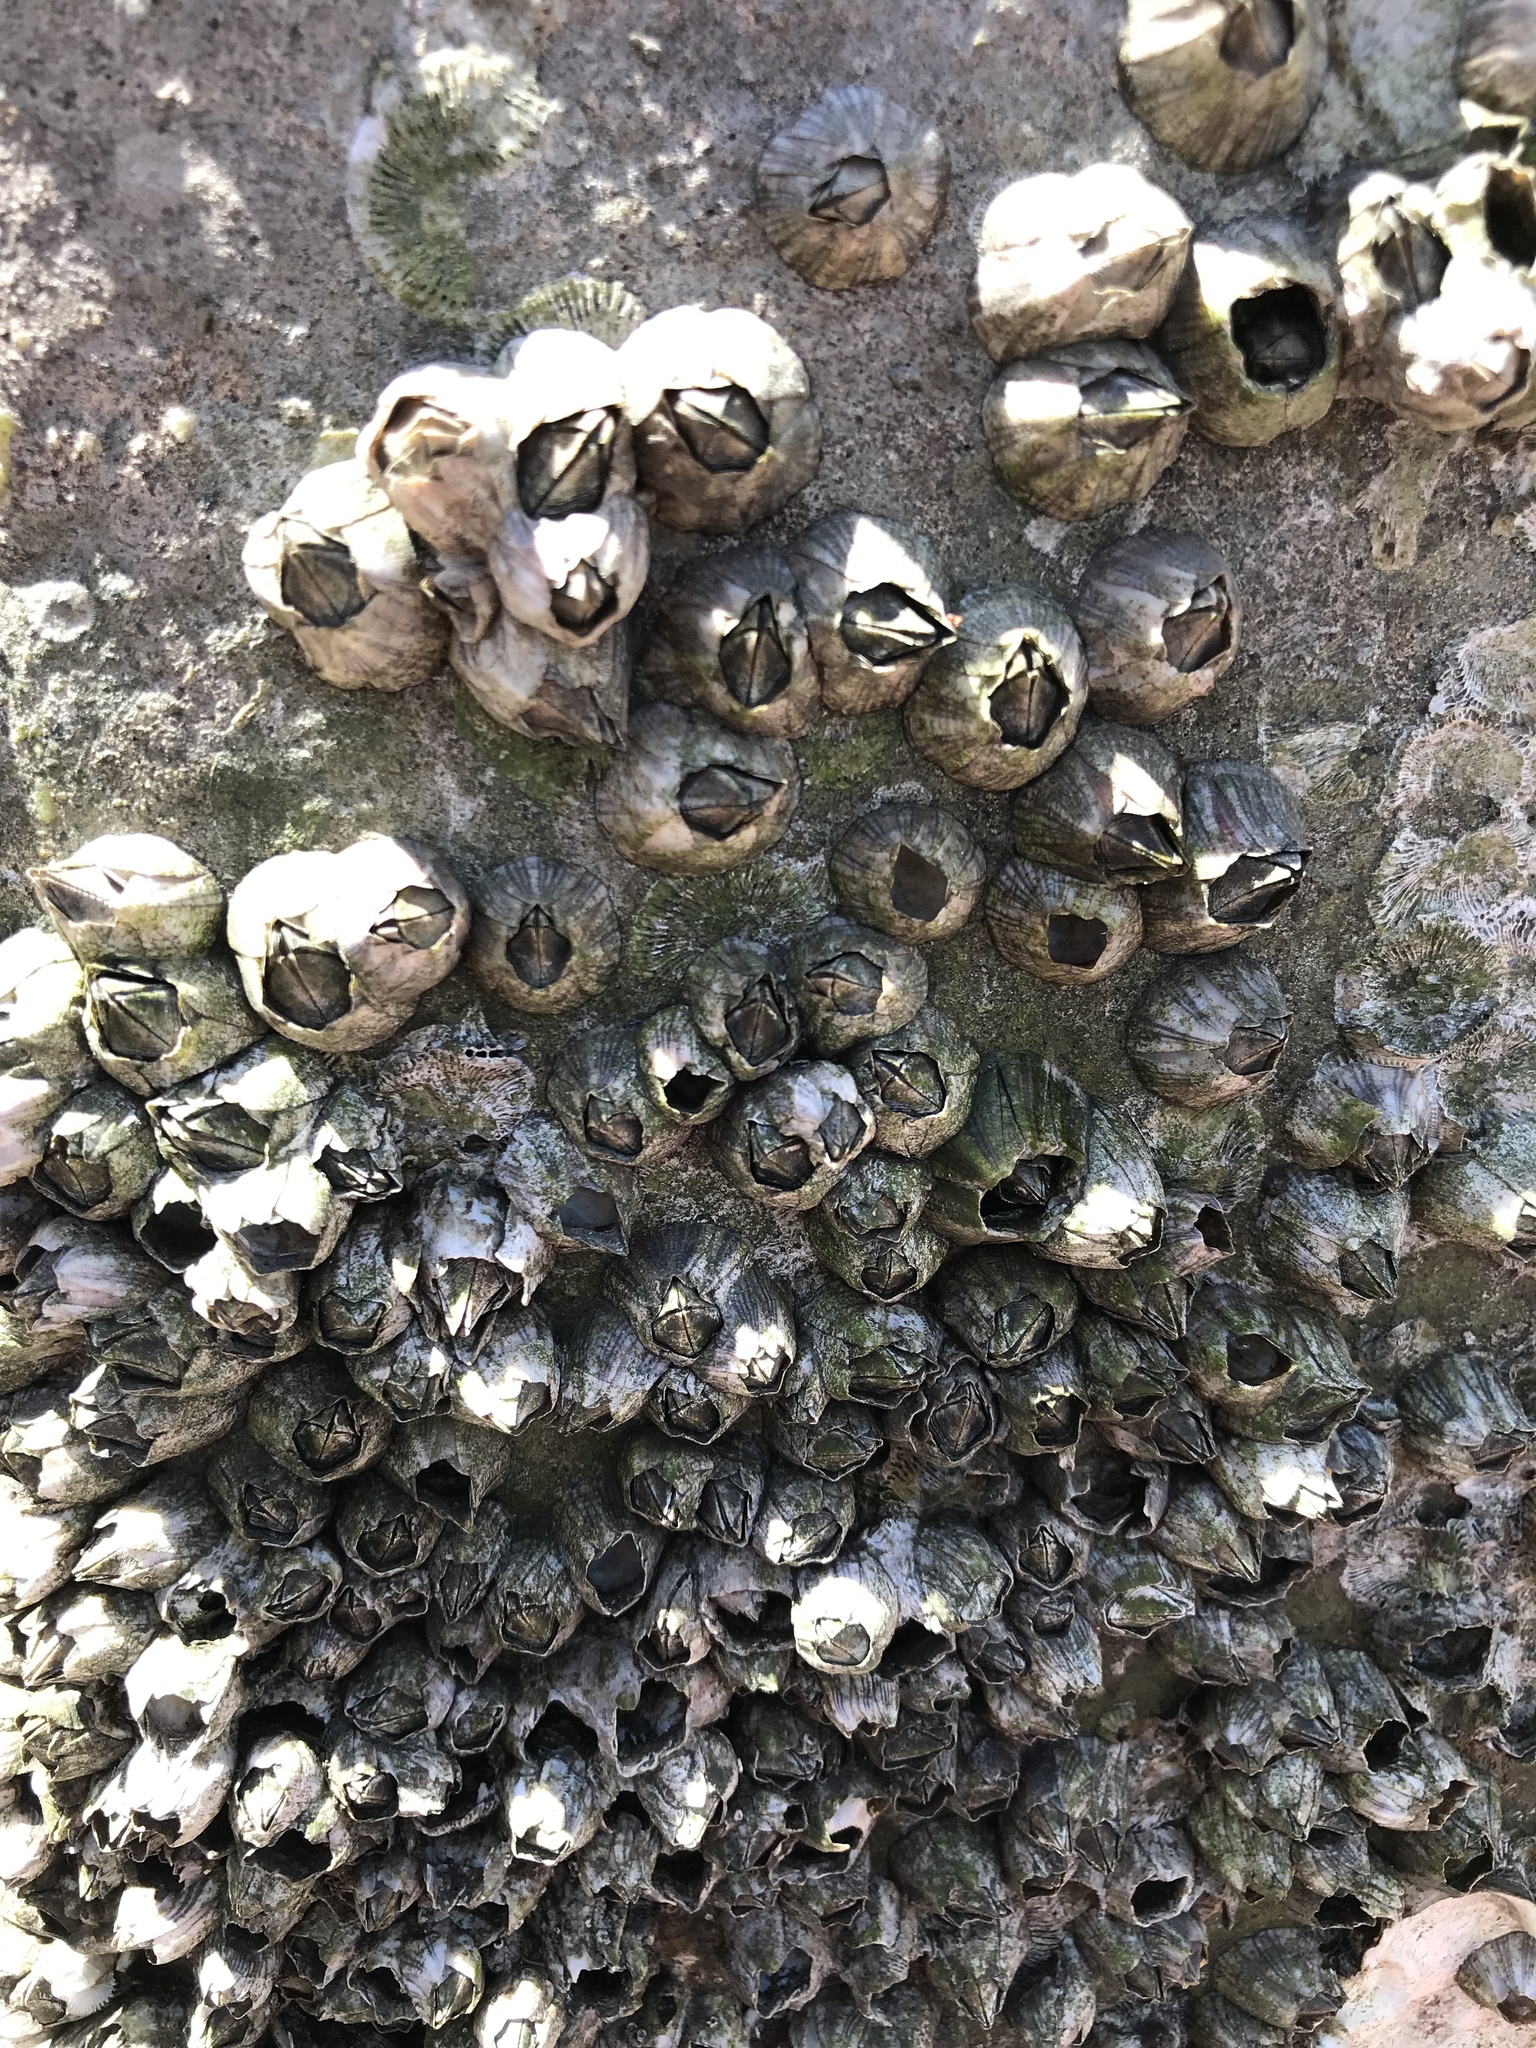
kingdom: Animalia
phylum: Arthropoda
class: Maxillopoda
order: Sessilia
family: Balanidae
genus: Amphibalanus
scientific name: Amphibalanus amphitrite
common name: Striped acorn barnacle
